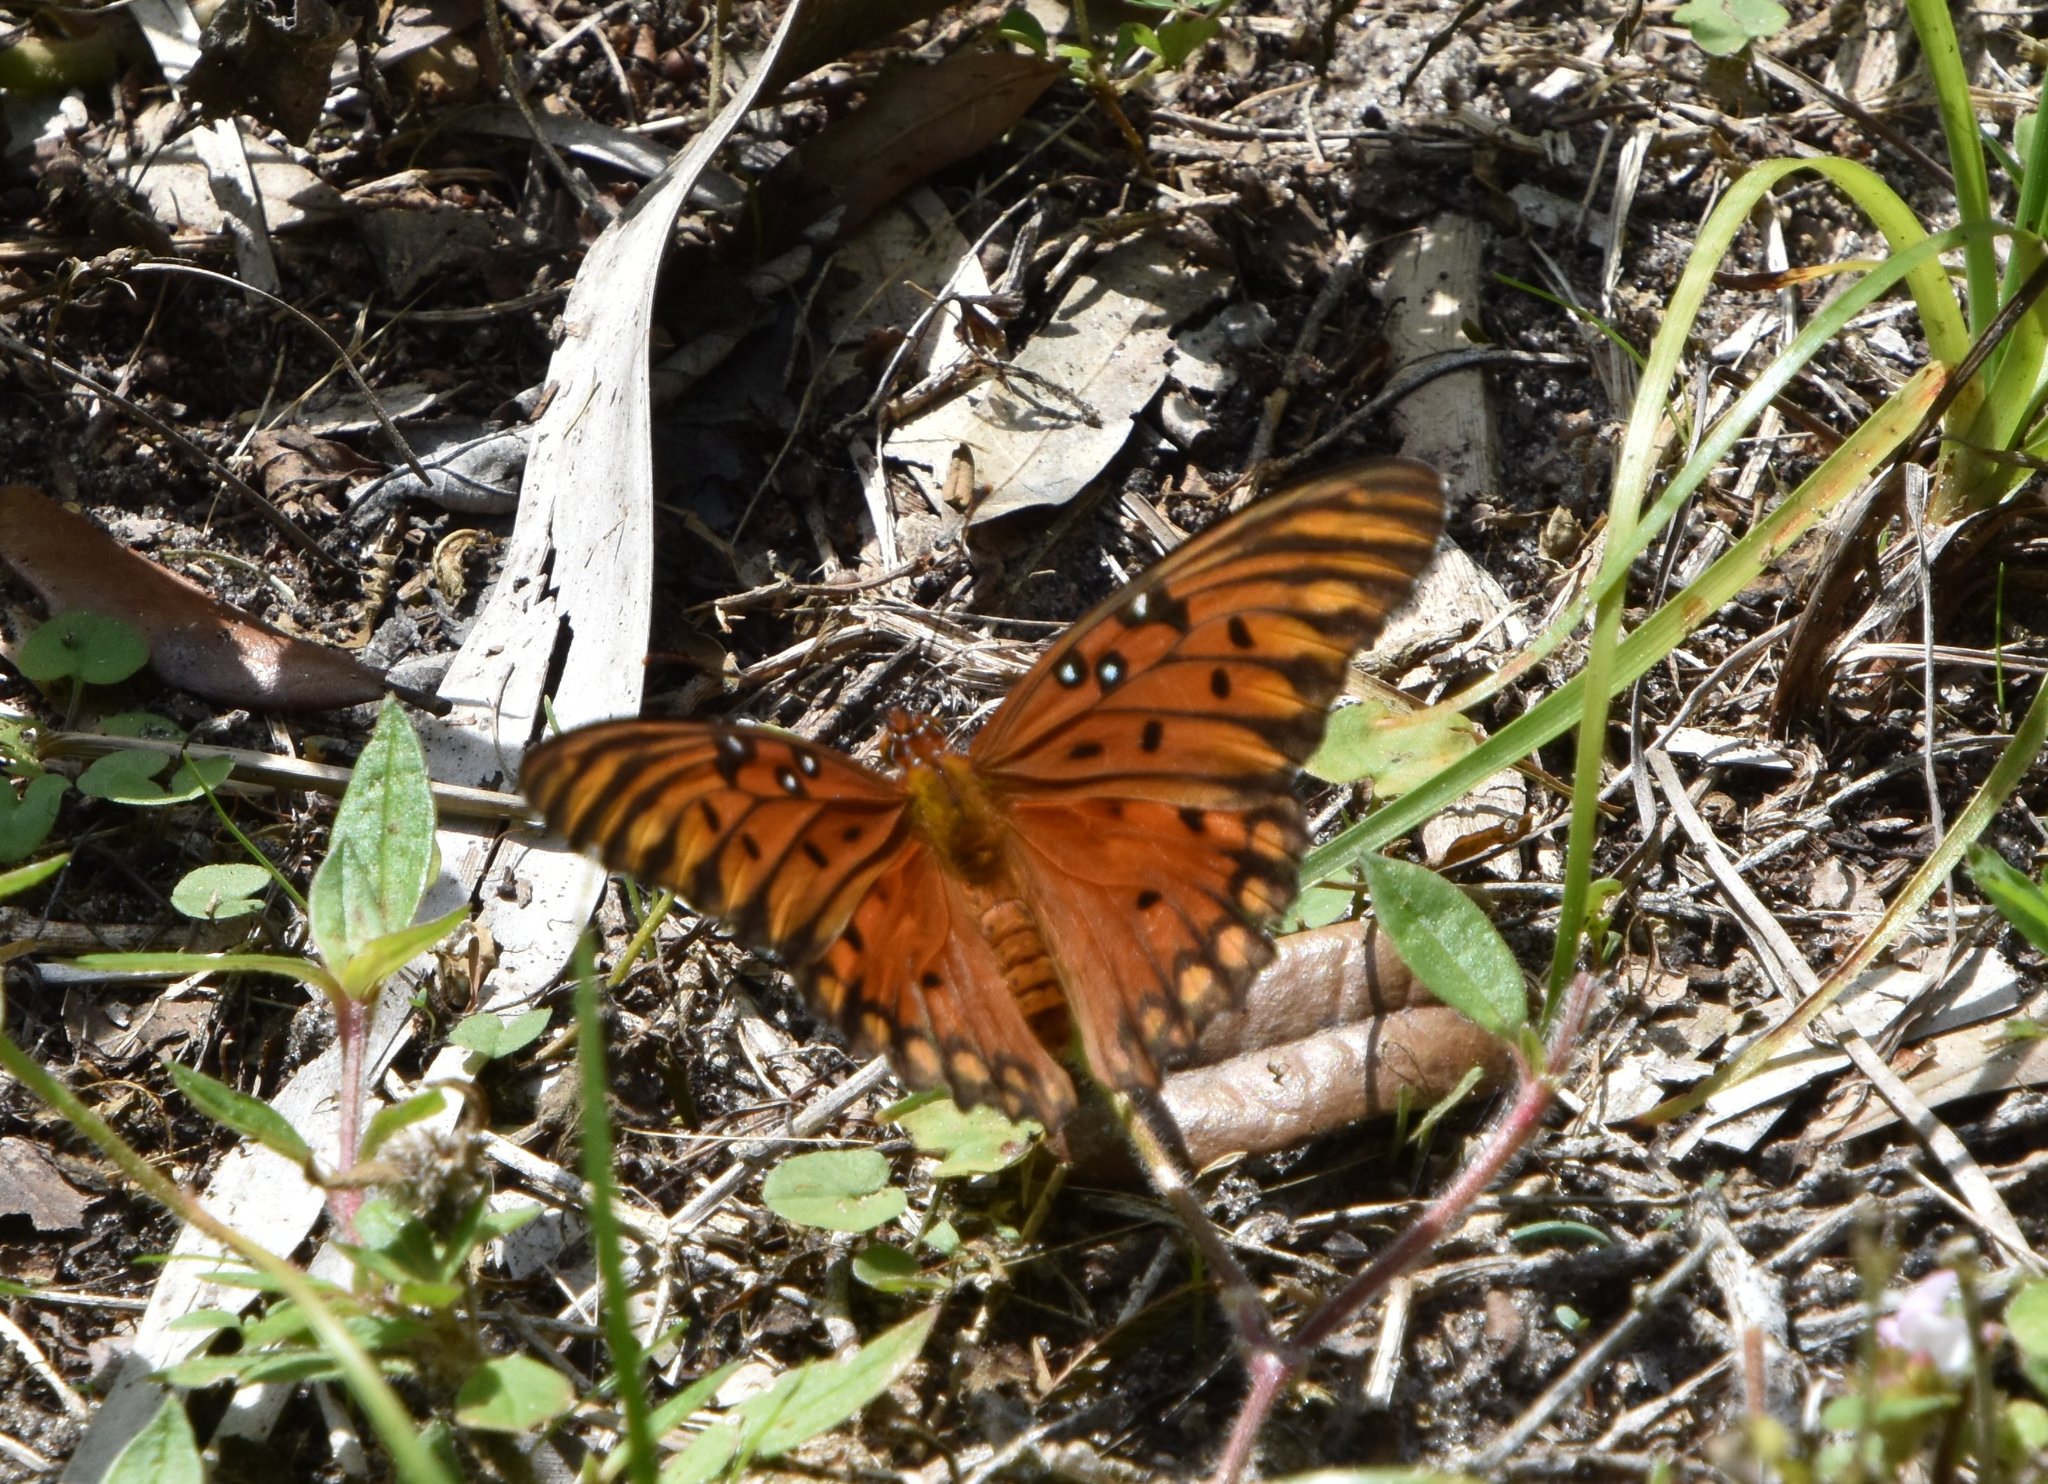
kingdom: Animalia
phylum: Arthropoda
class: Insecta
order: Lepidoptera
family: Nymphalidae
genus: Dione
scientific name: Dione vanillae
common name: Gulf fritillary
